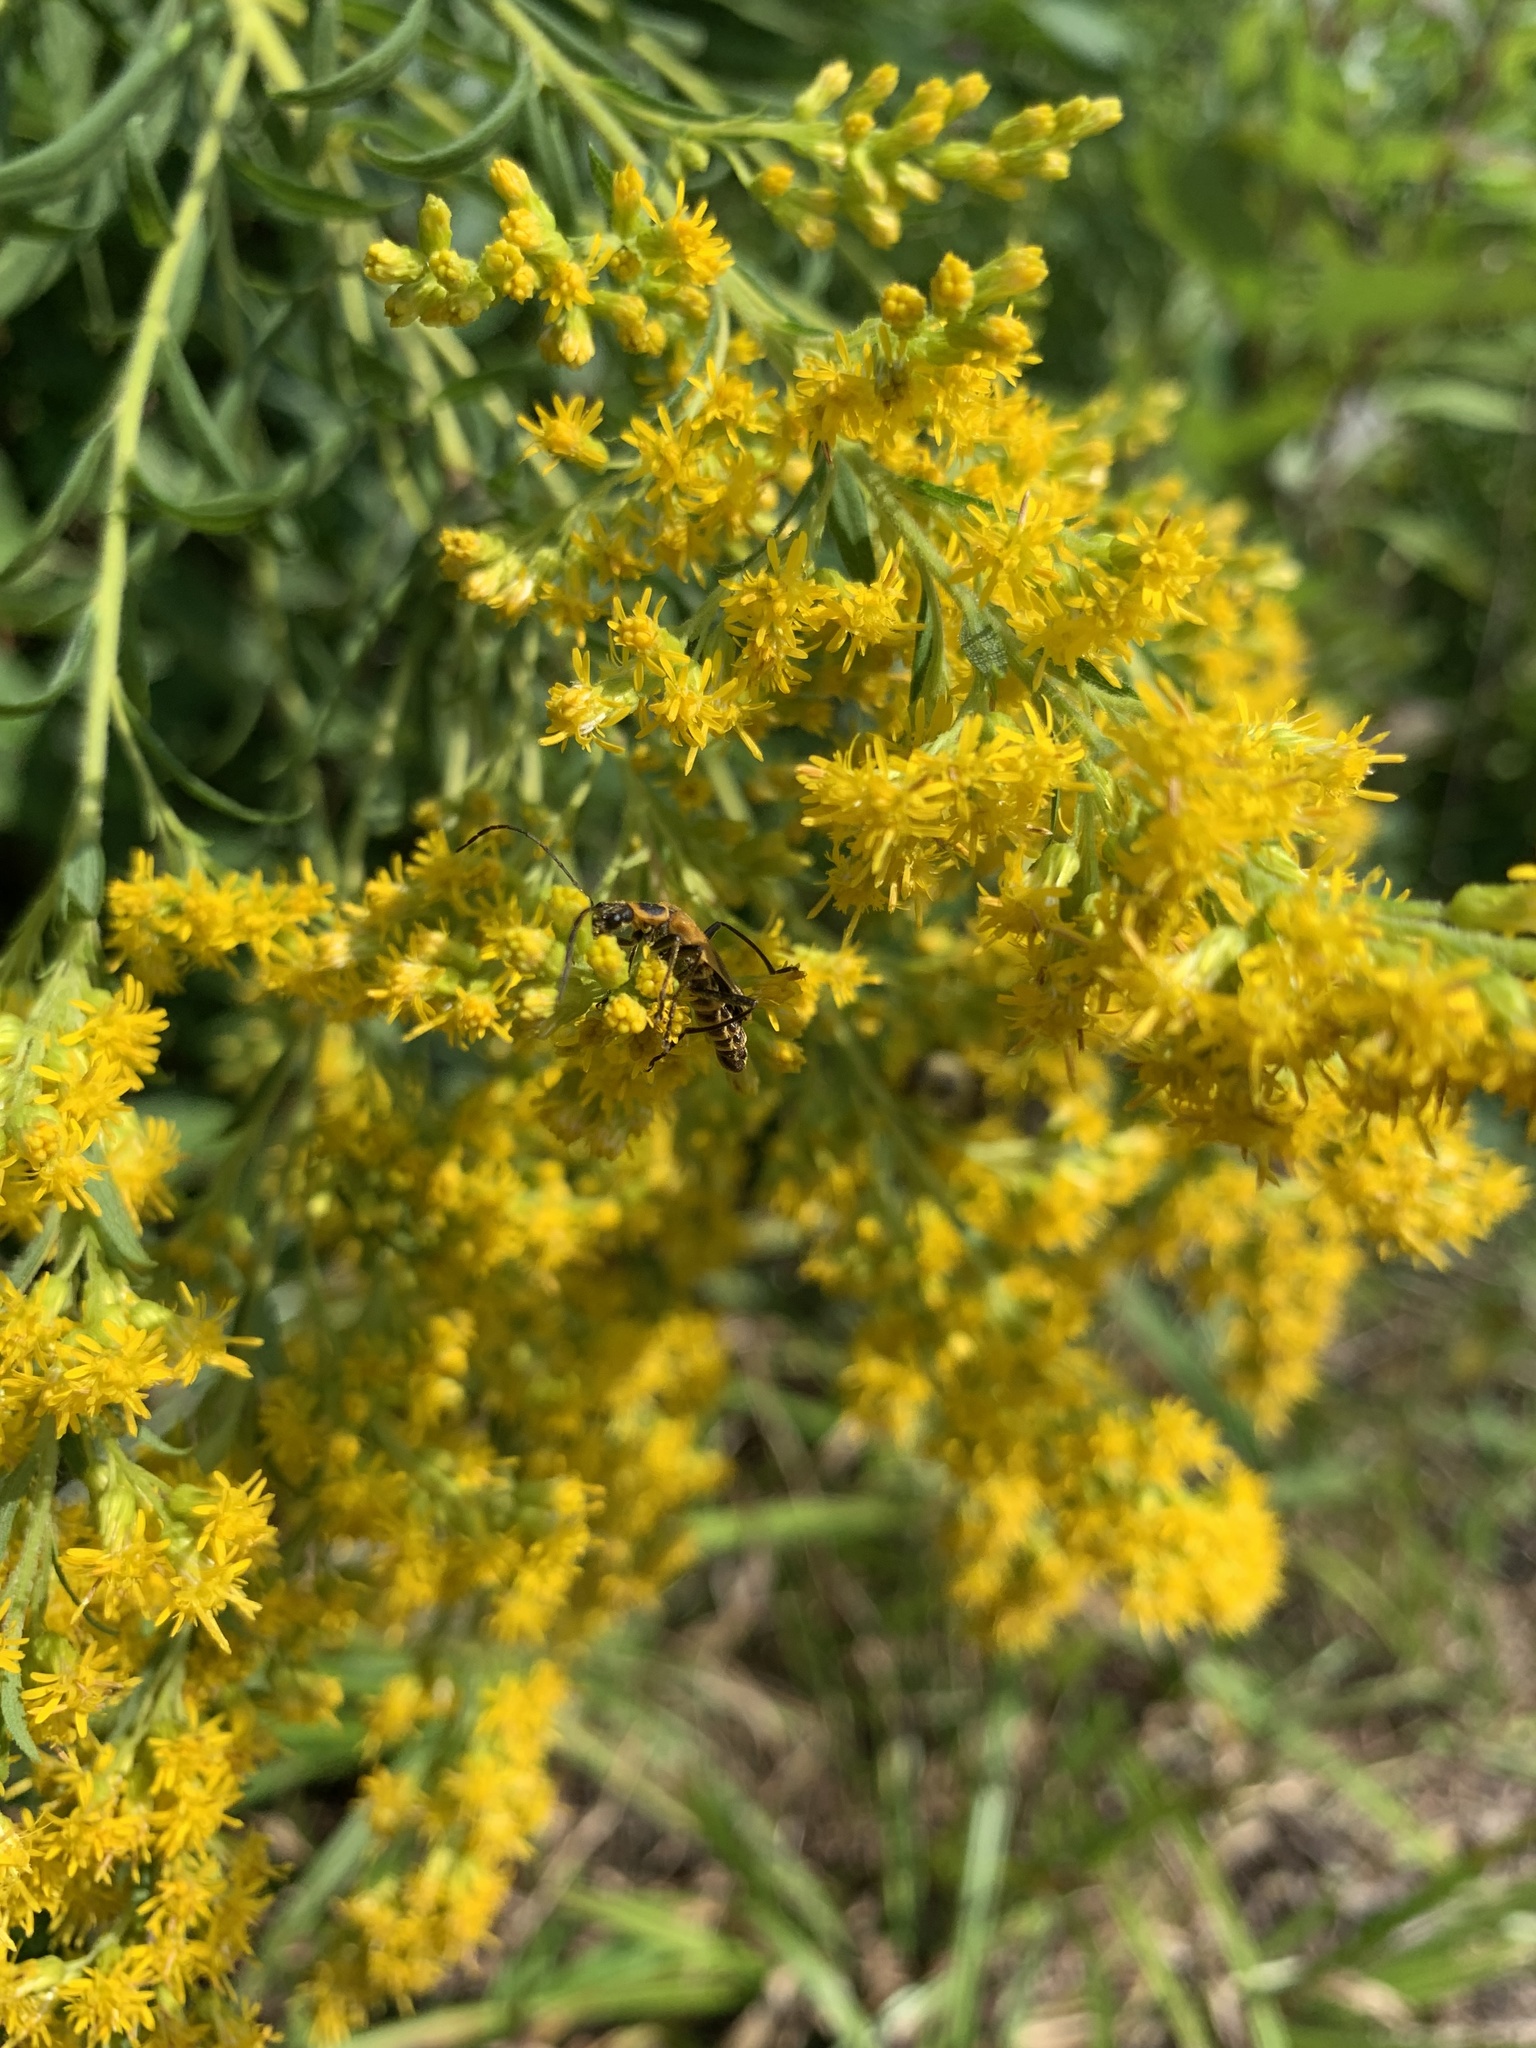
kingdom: Animalia
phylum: Arthropoda
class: Insecta
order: Coleoptera
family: Cantharidae
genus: Chauliognathus
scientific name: Chauliognathus pensylvanicus
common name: Goldenrod soldier beetle
